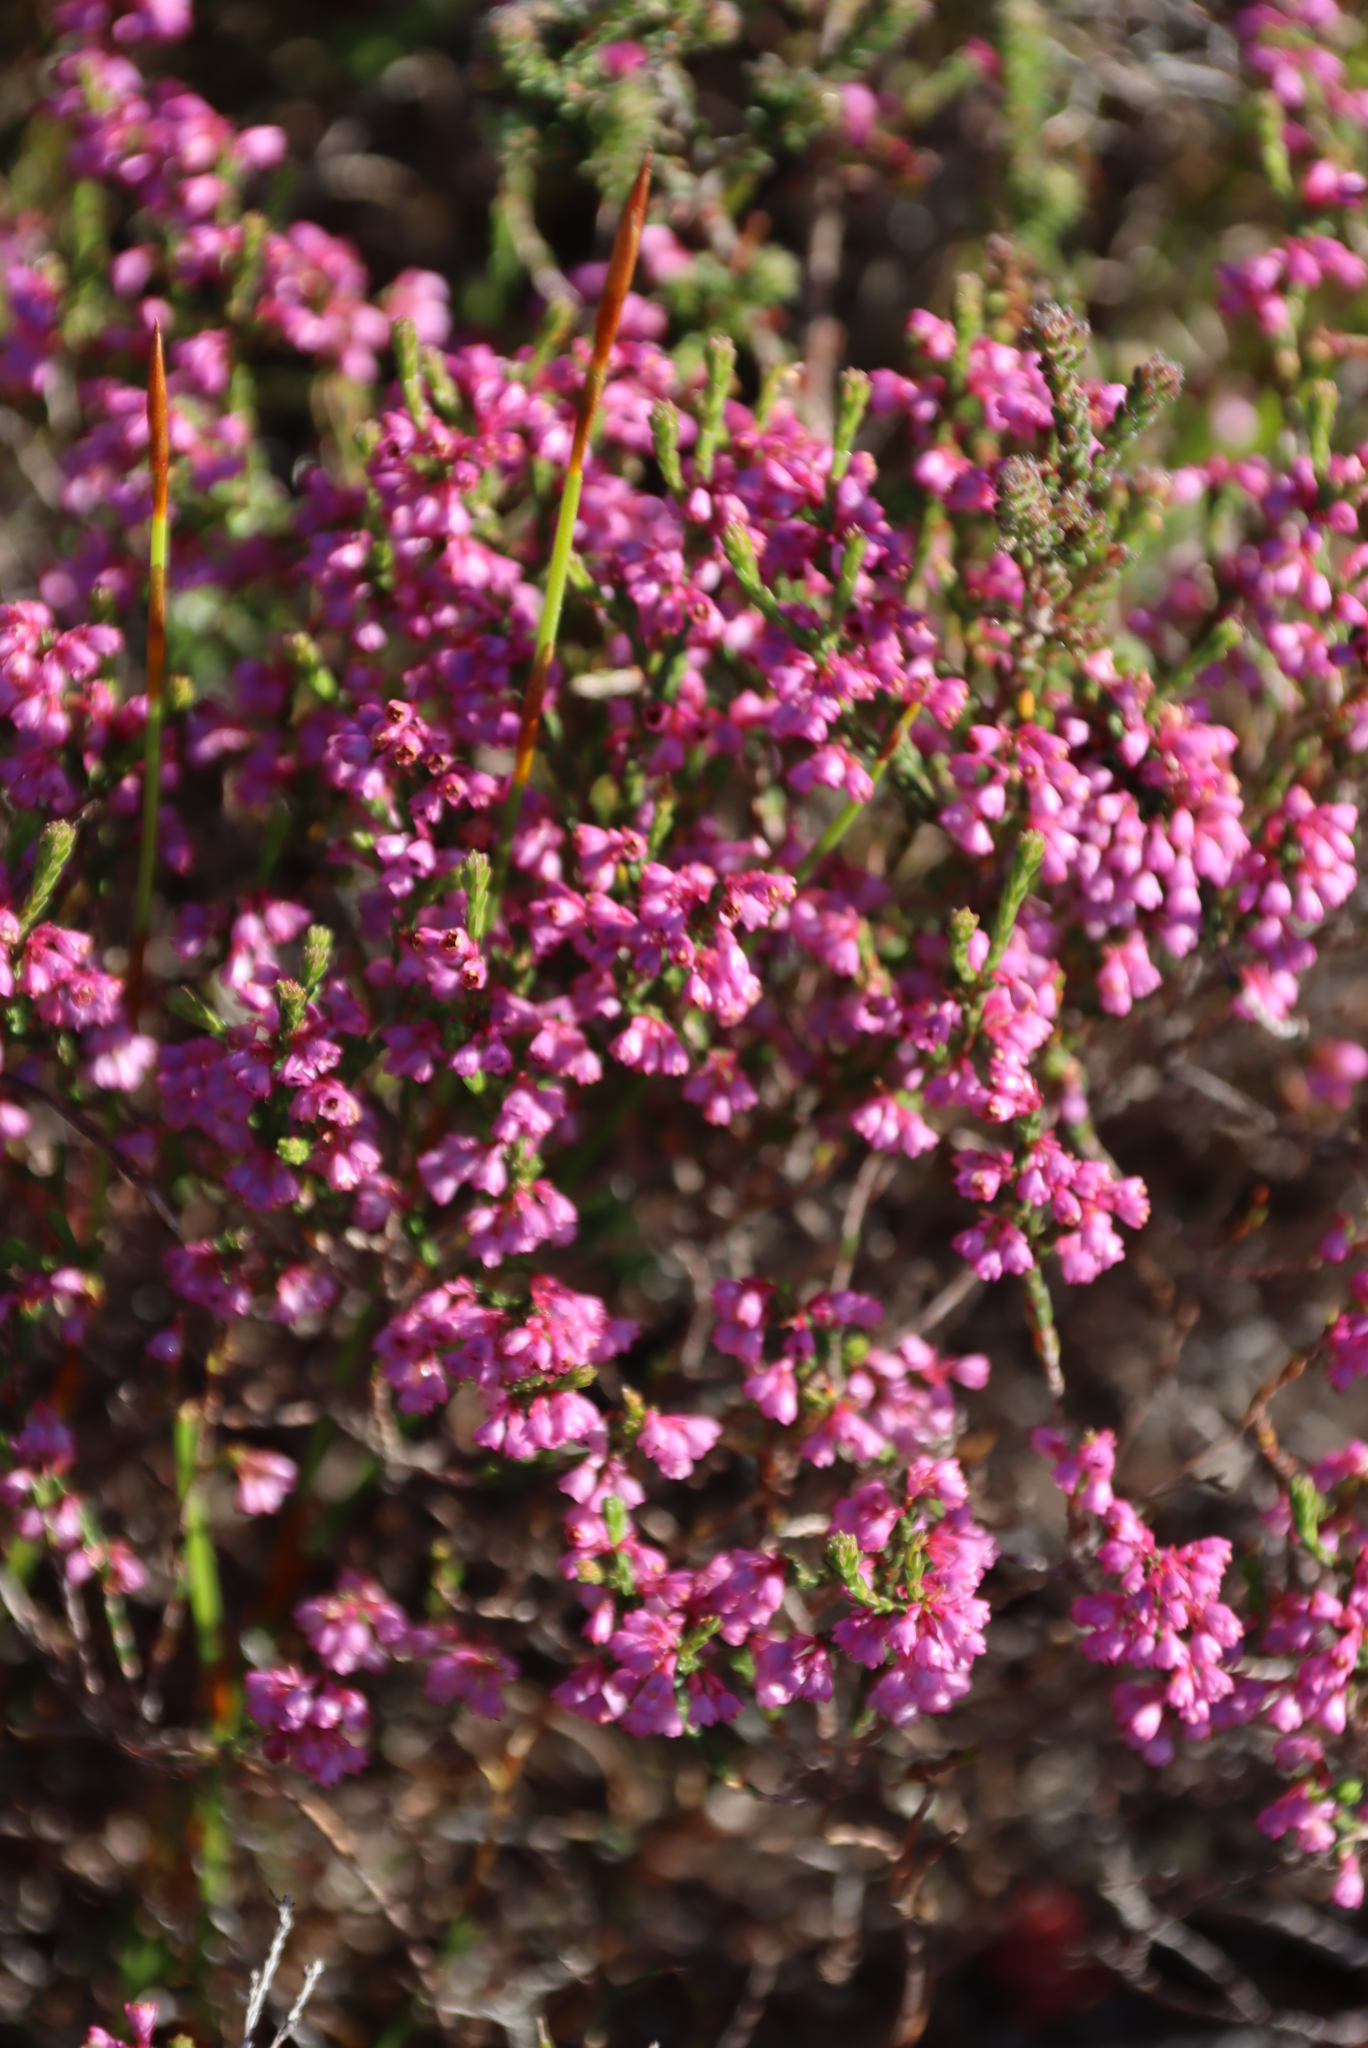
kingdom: Plantae
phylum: Tracheophyta
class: Magnoliopsida
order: Ericales
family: Ericaceae
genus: Erica
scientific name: Erica gnaphaloides
